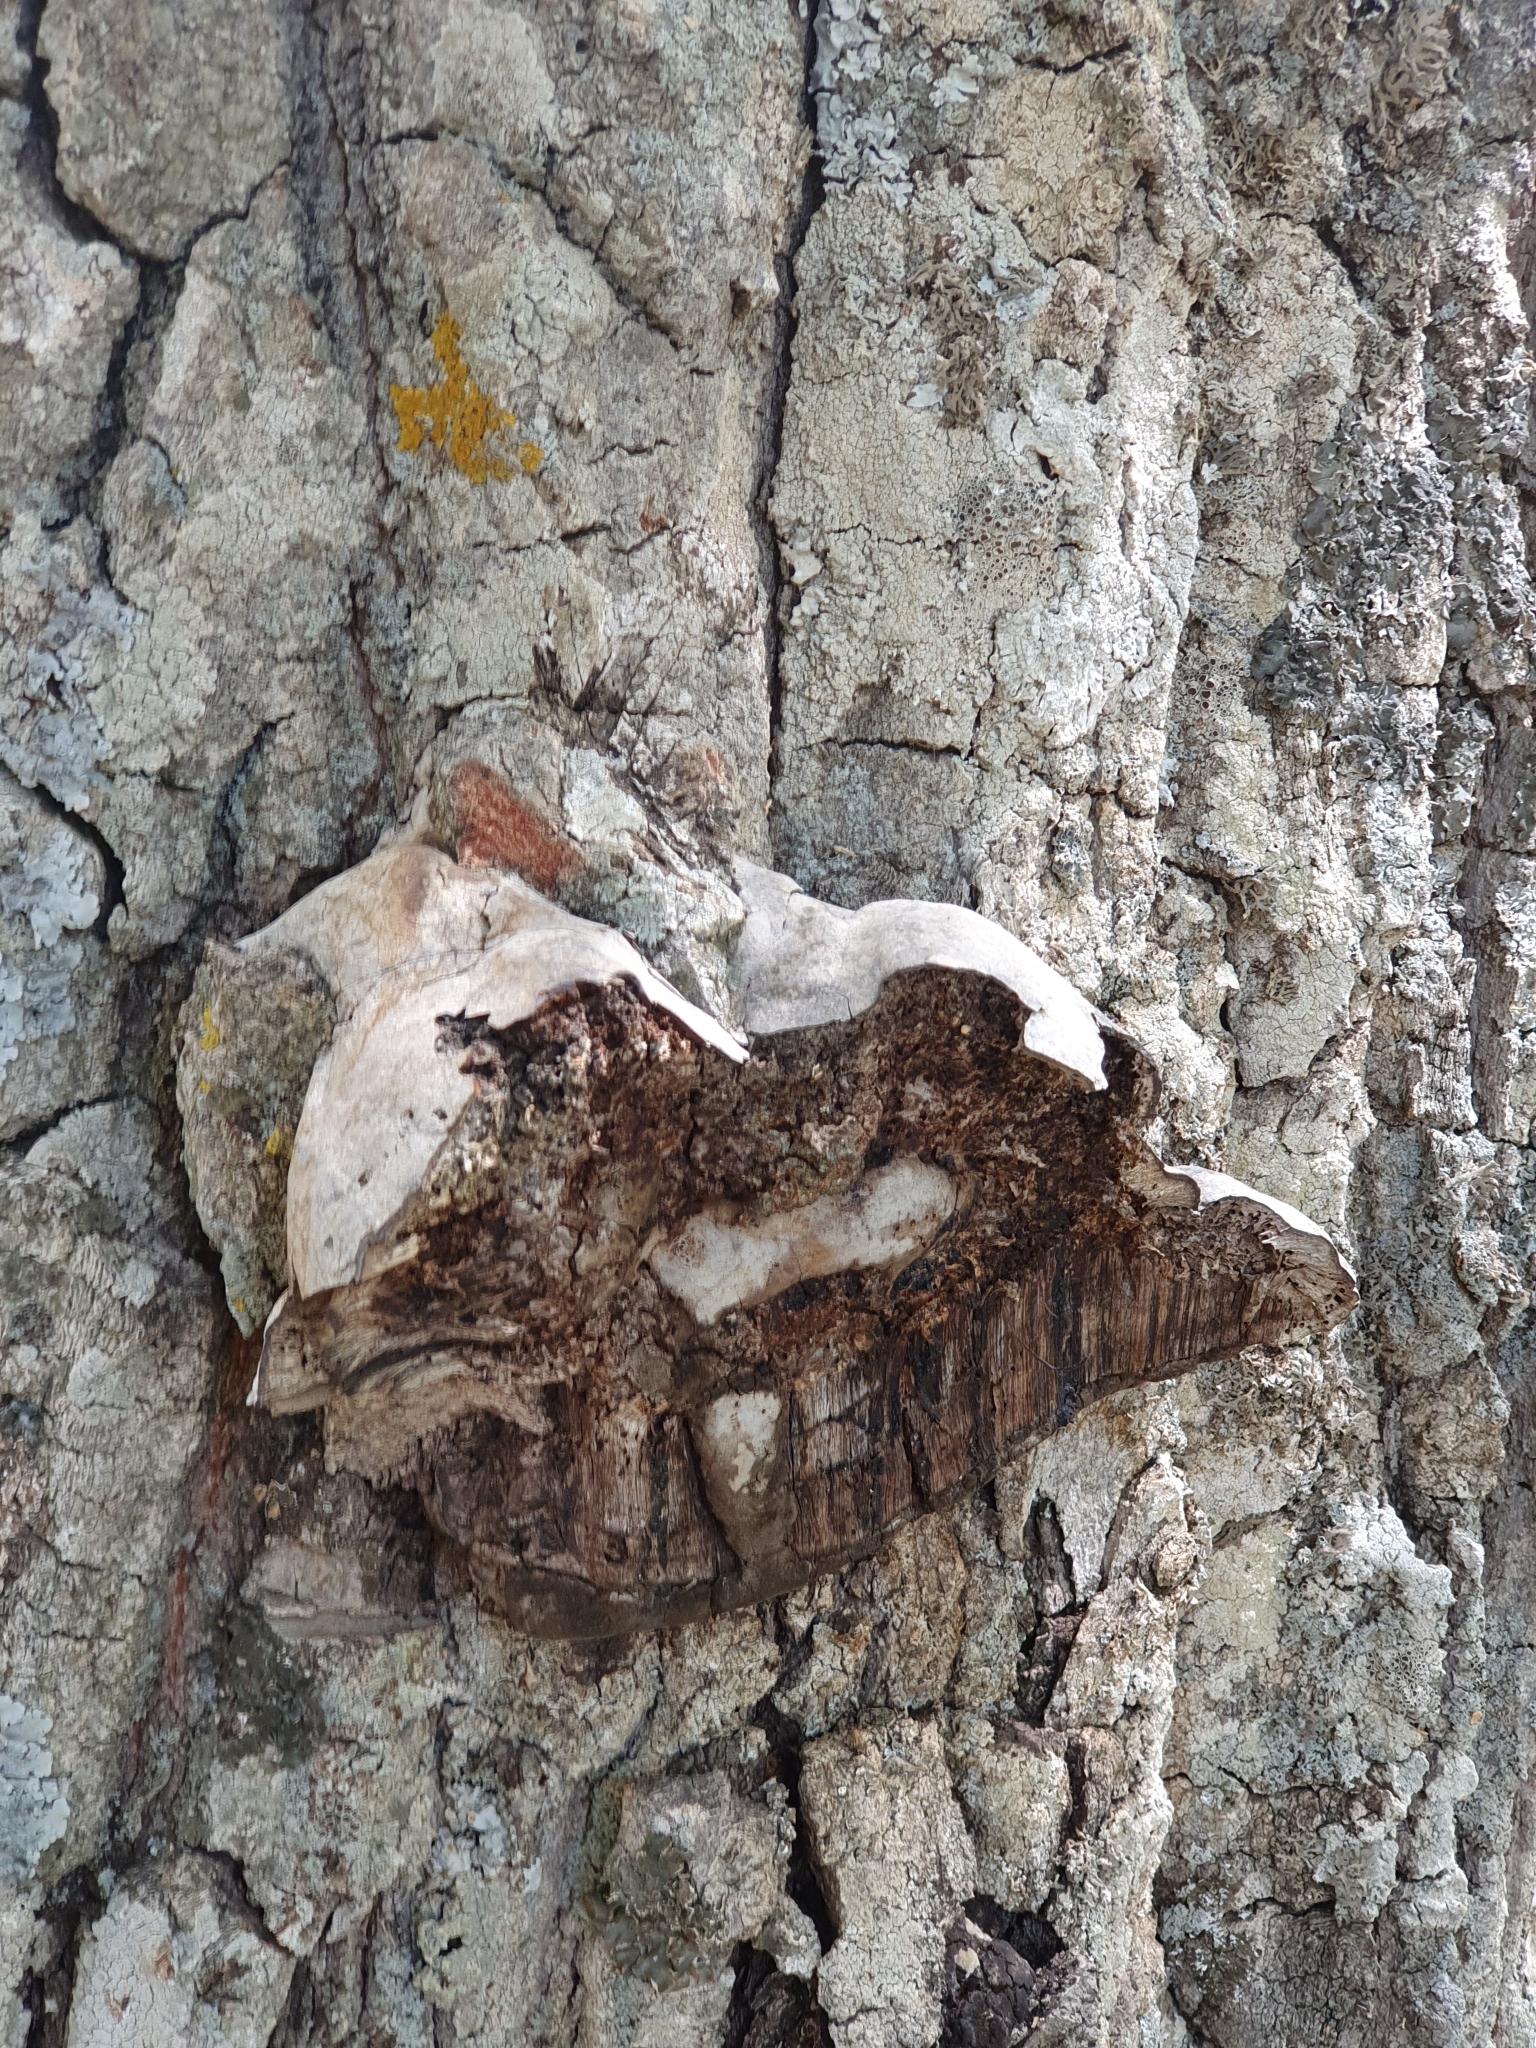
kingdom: Fungi
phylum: Basidiomycota
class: Agaricomycetes
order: Polyporales
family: Polyporaceae
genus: Fomes
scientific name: Fomes fomentarius
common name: Hoof fungus
